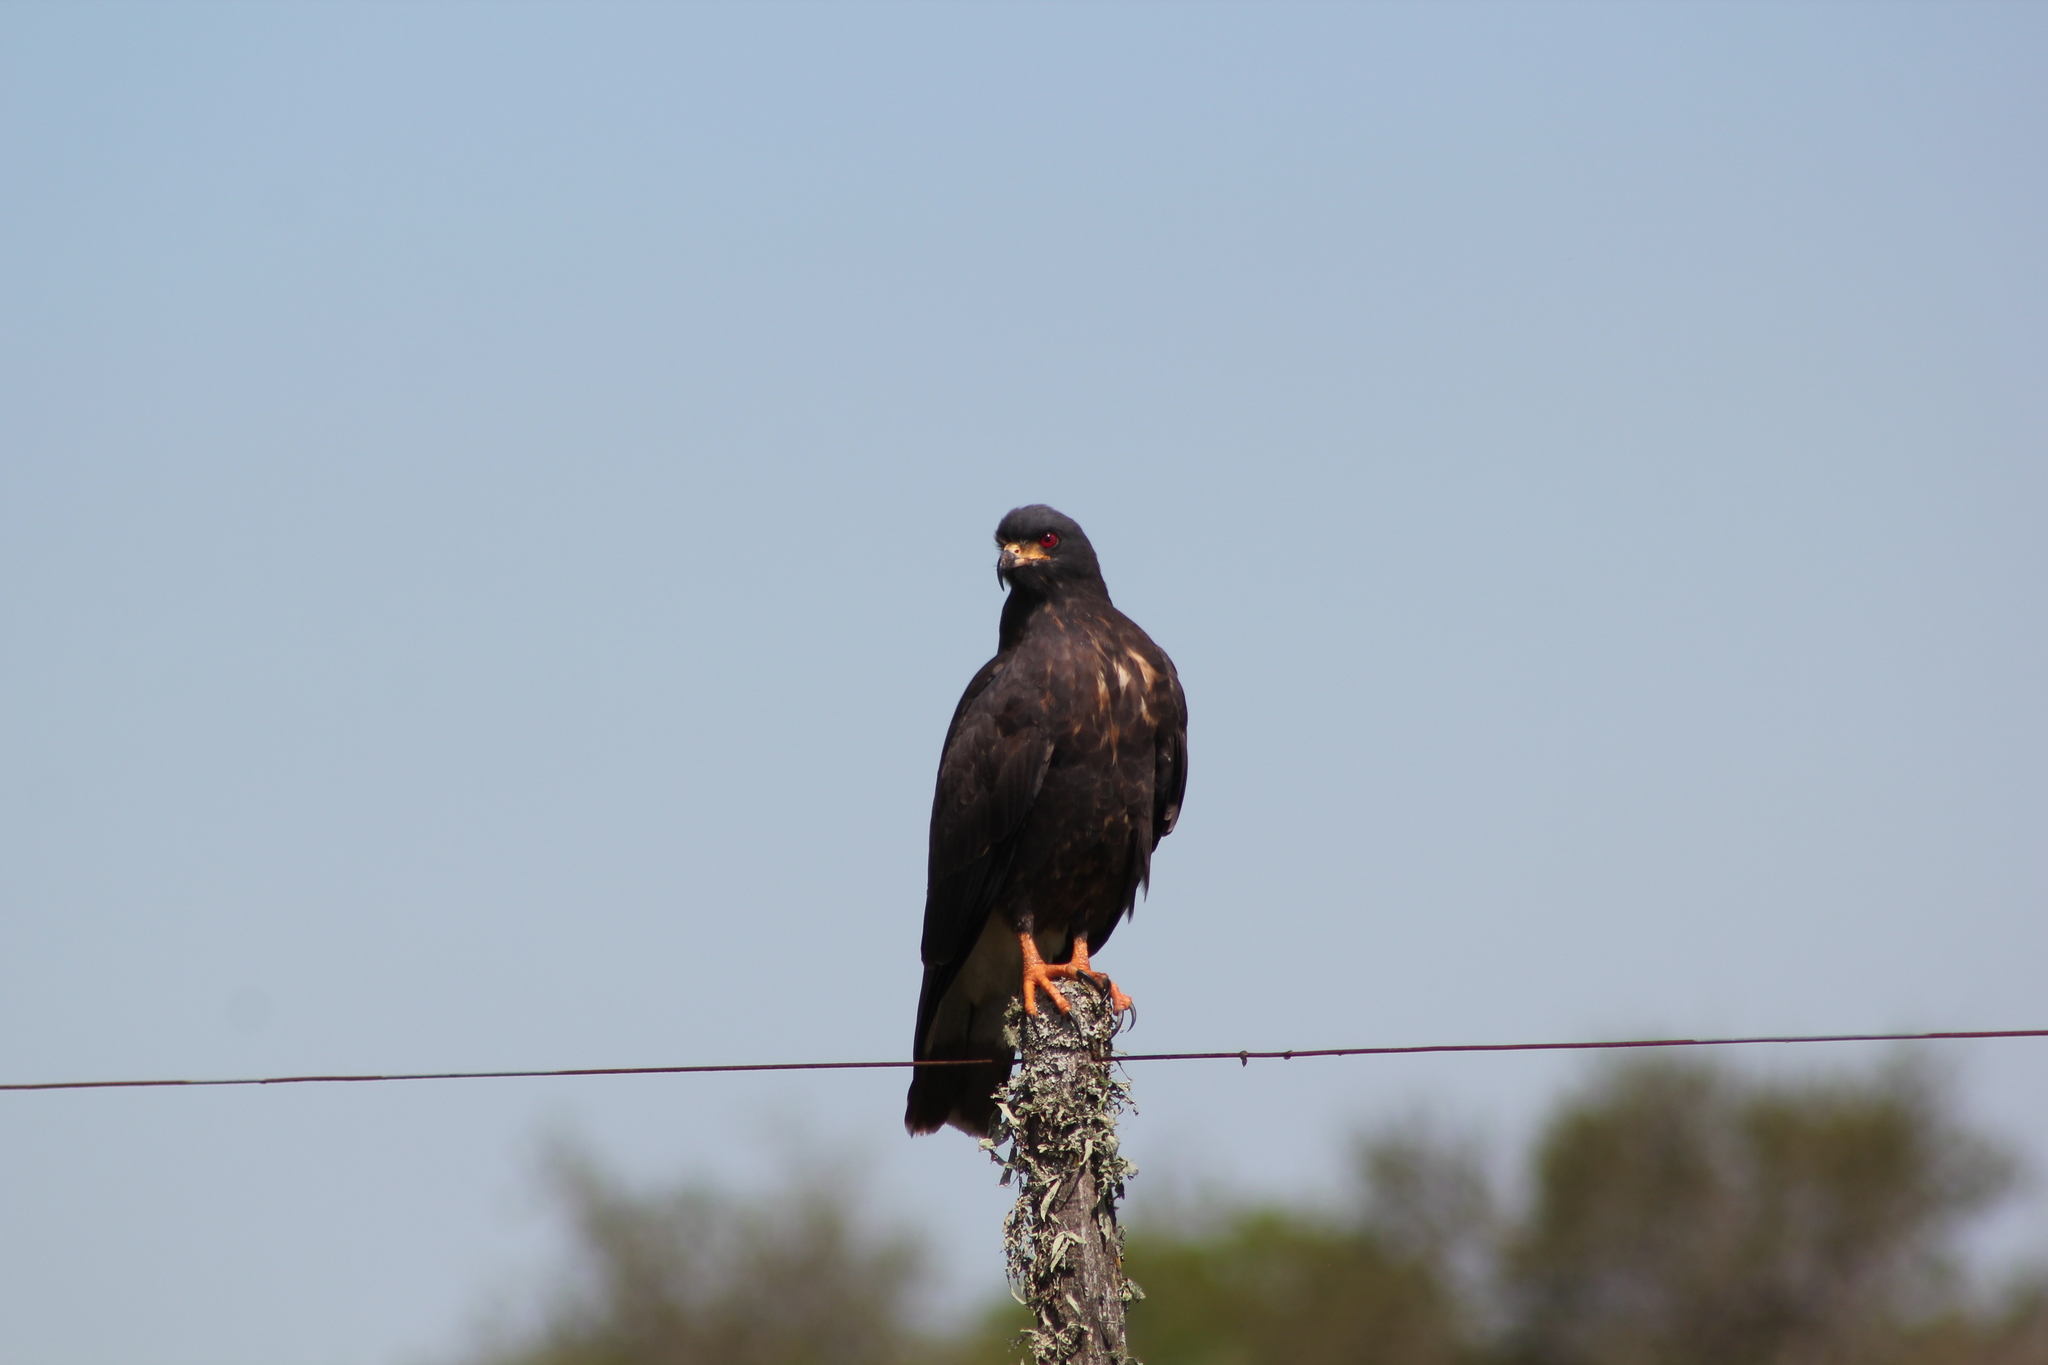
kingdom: Animalia
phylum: Chordata
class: Aves
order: Accipitriformes
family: Accipitridae
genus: Rostrhamus
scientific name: Rostrhamus sociabilis
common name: Snail kite
